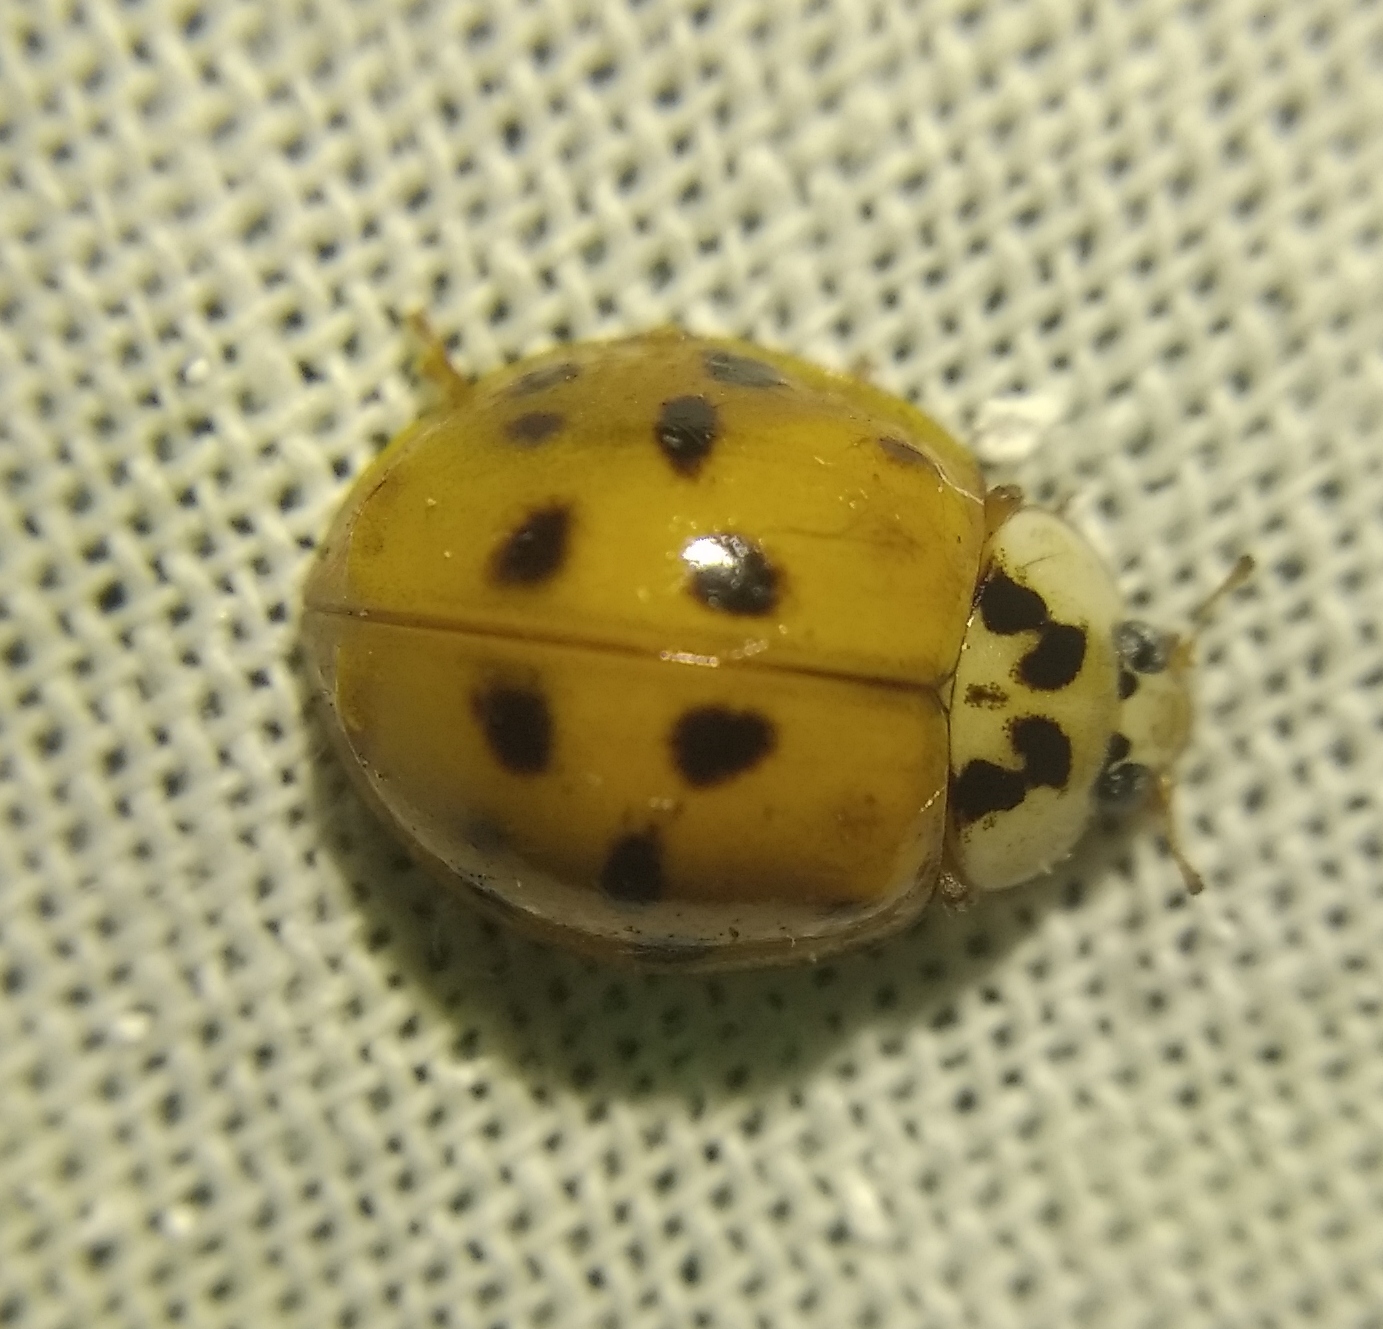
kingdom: Animalia
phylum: Arthropoda
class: Insecta
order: Coleoptera
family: Coccinellidae
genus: Harmonia
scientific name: Harmonia axyridis
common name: Harlequin ladybird
